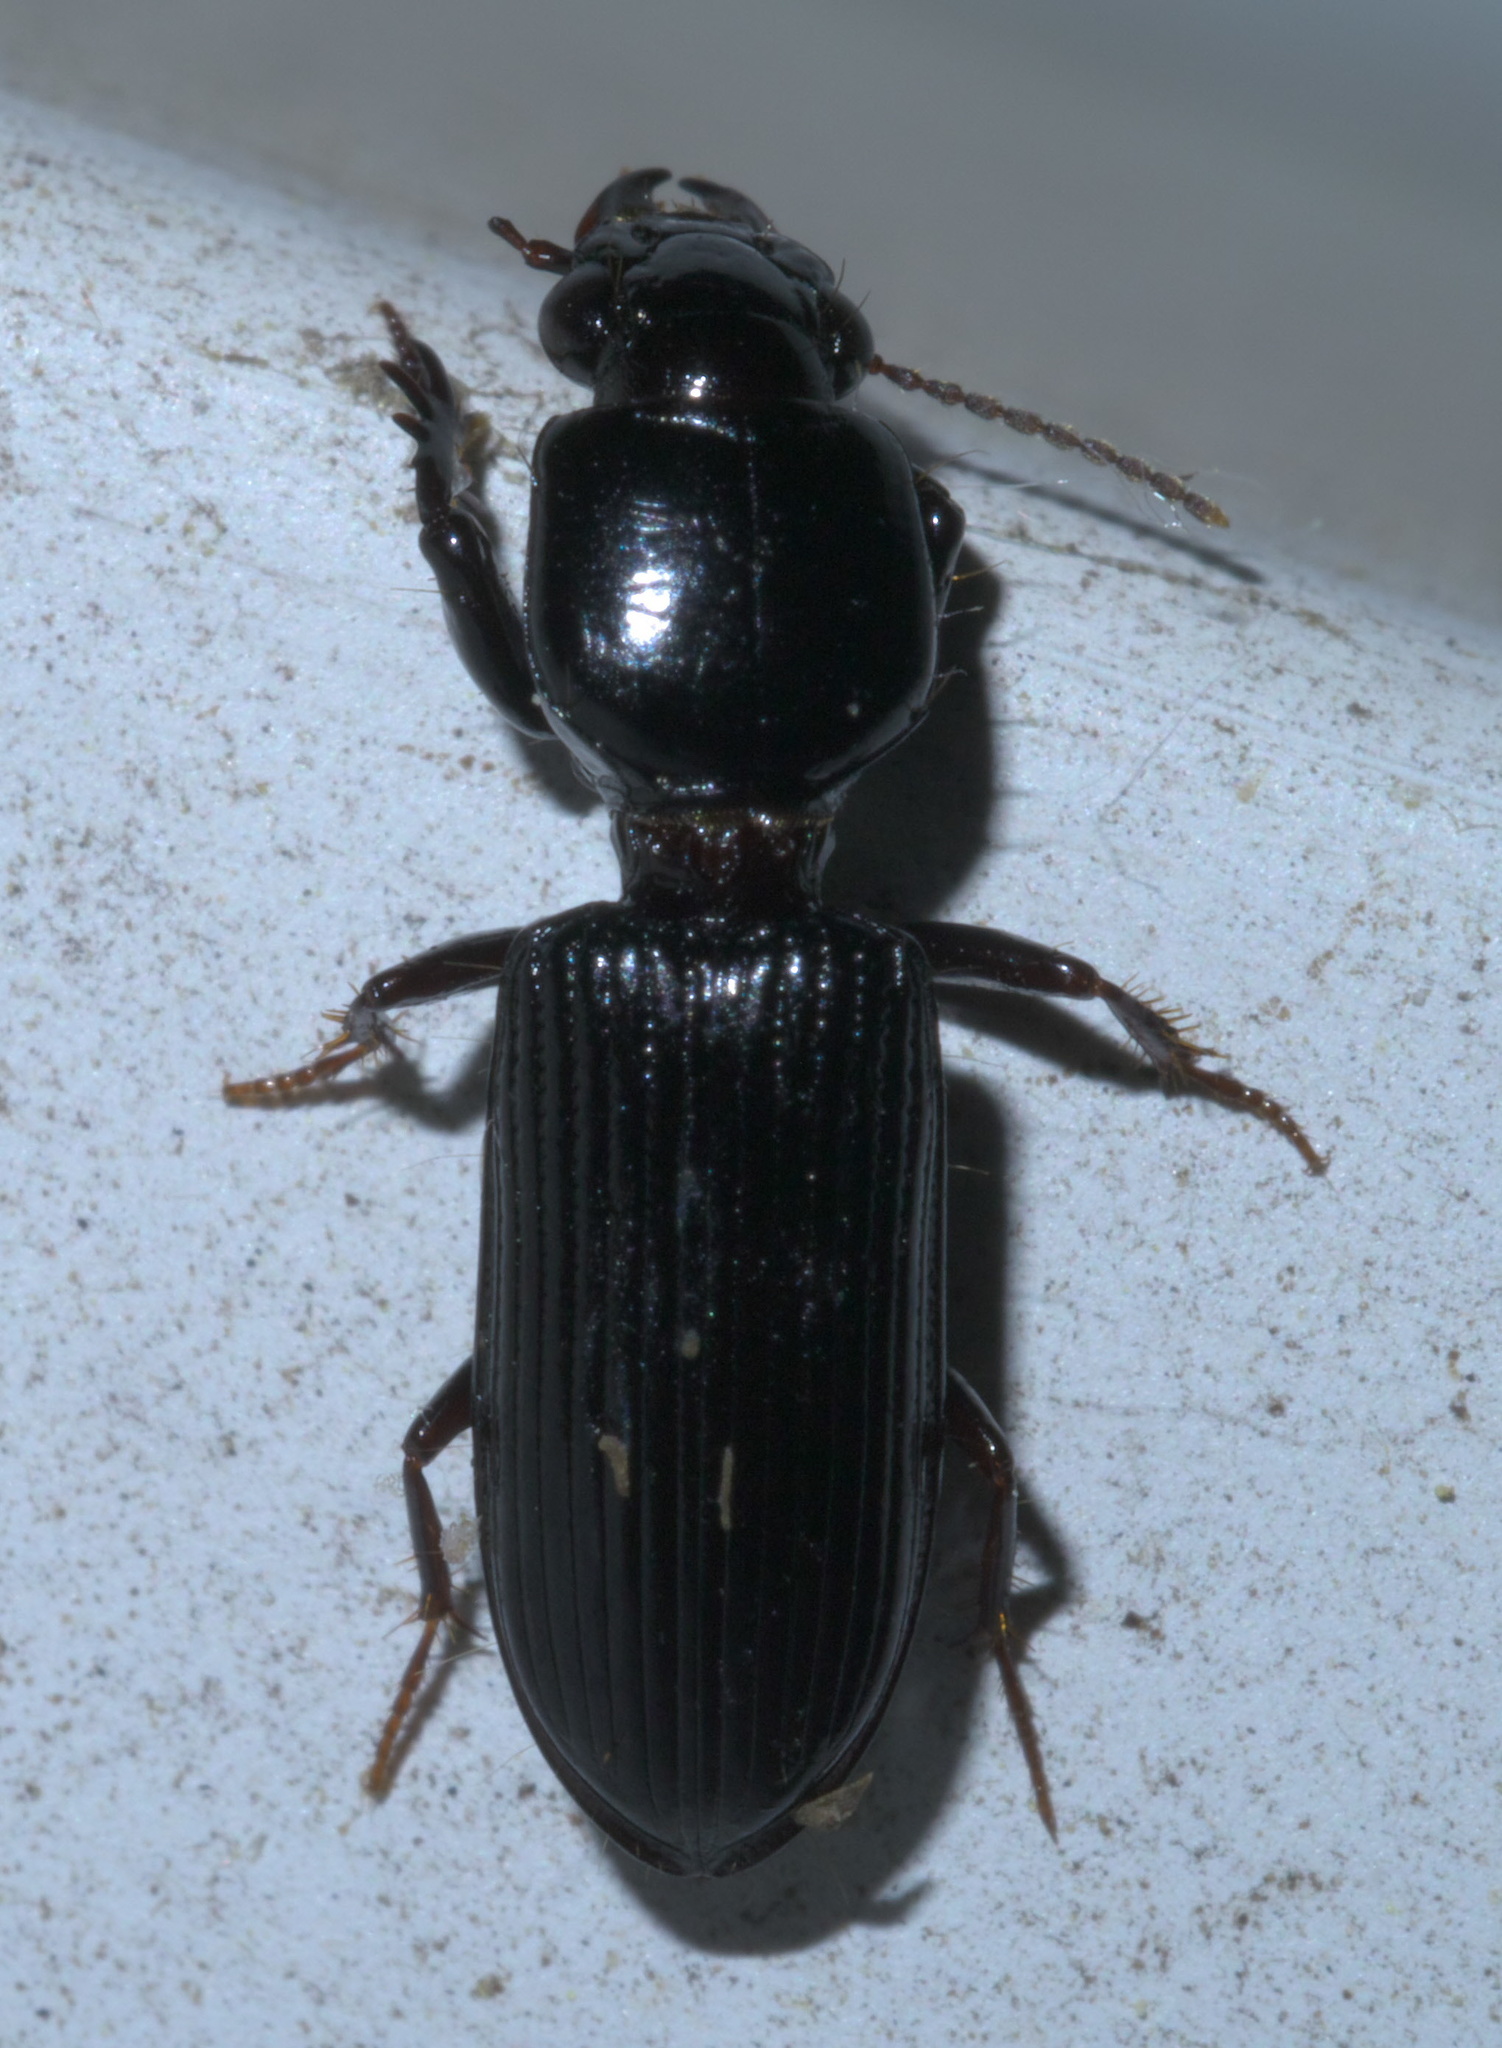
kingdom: Animalia
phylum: Arthropoda
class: Insecta
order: Coleoptera
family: Carabidae
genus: Semiclivina
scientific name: Semiclivina dentipes
